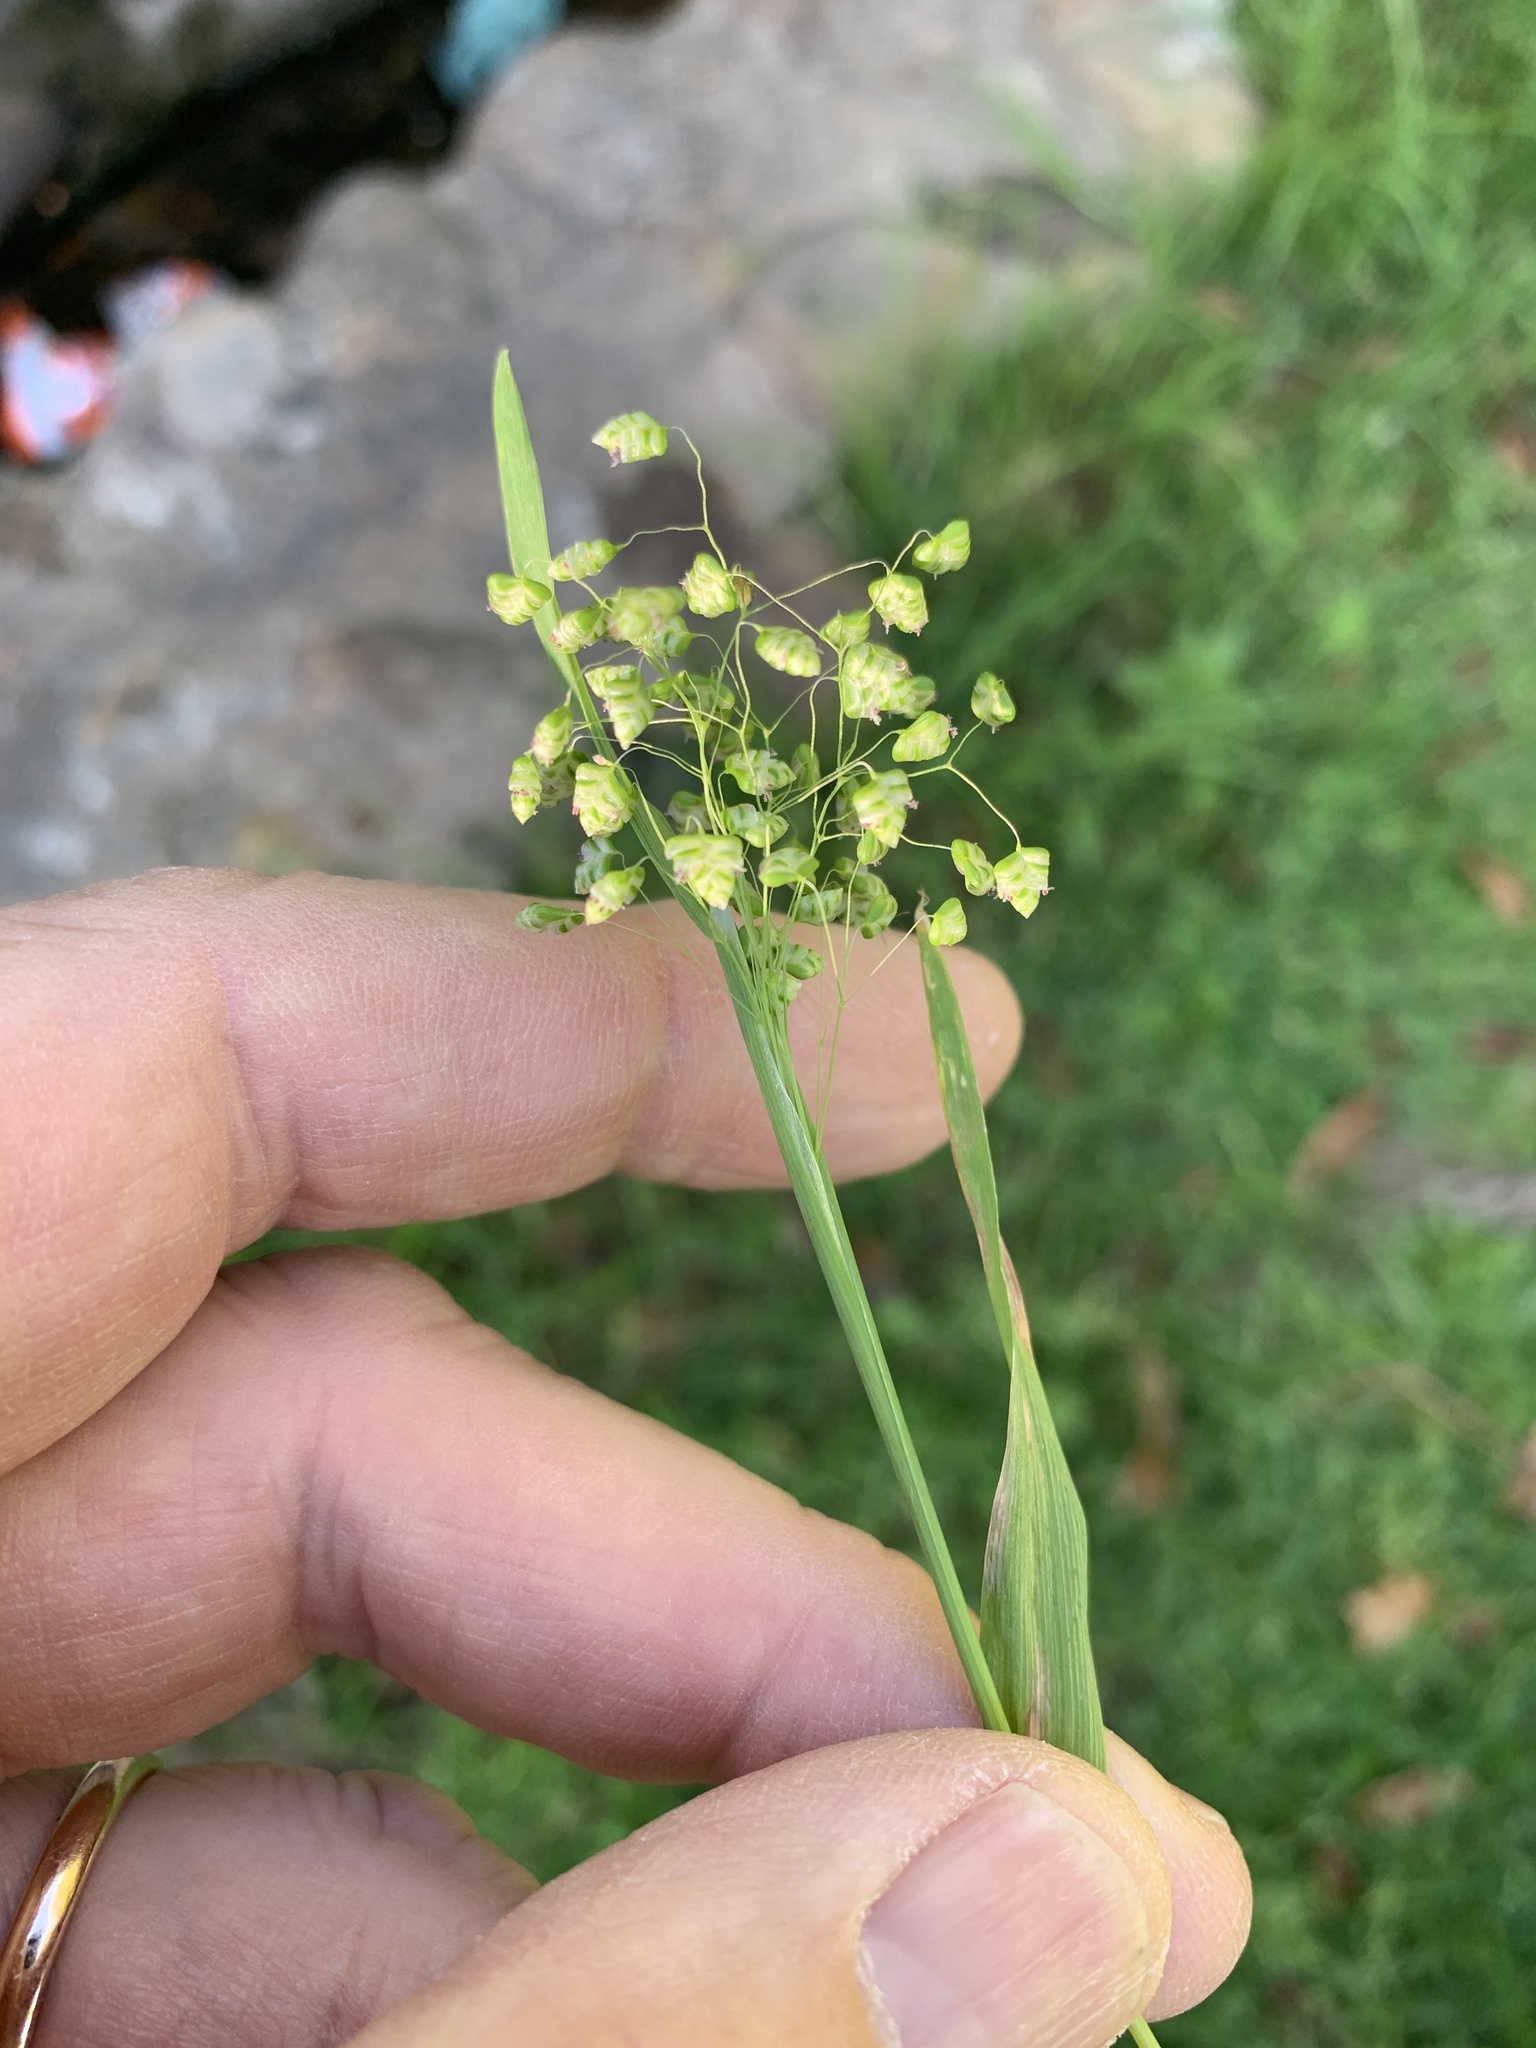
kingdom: Plantae
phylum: Tracheophyta
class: Liliopsida
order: Poales
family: Poaceae
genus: Briza
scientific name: Briza minor
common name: Lesser quaking-grass
